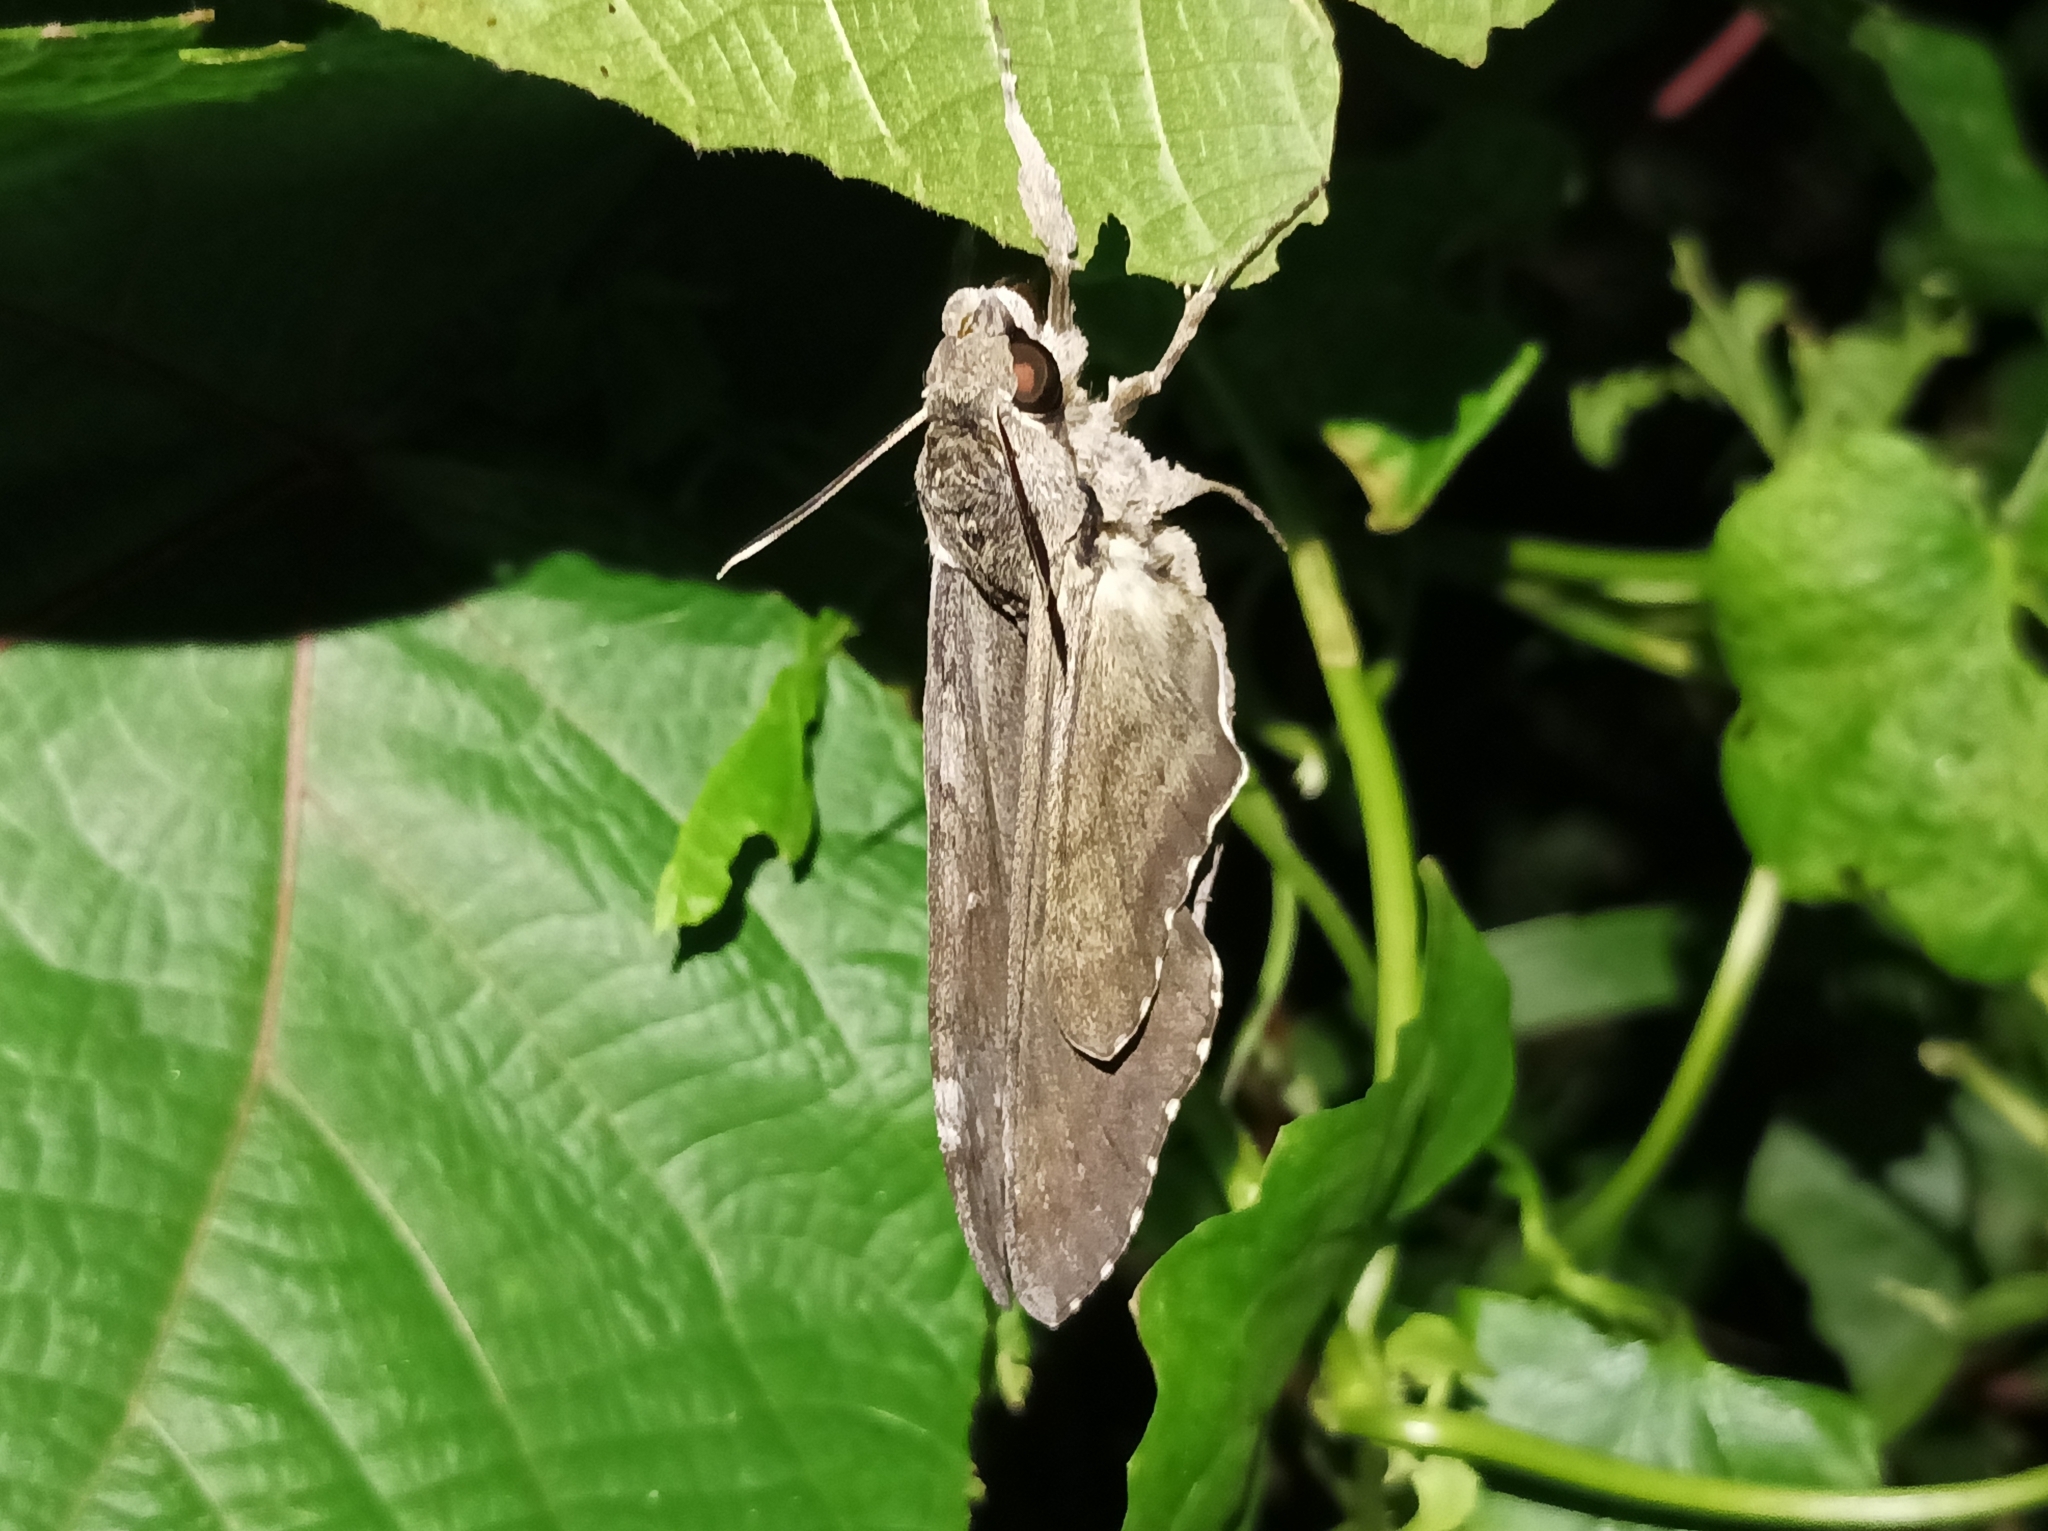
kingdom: Animalia
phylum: Arthropoda
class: Insecta
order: Lepidoptera
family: Sphingidae
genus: Agrius
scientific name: Agrius convolvuli
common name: Convolvulus hawkmoth
